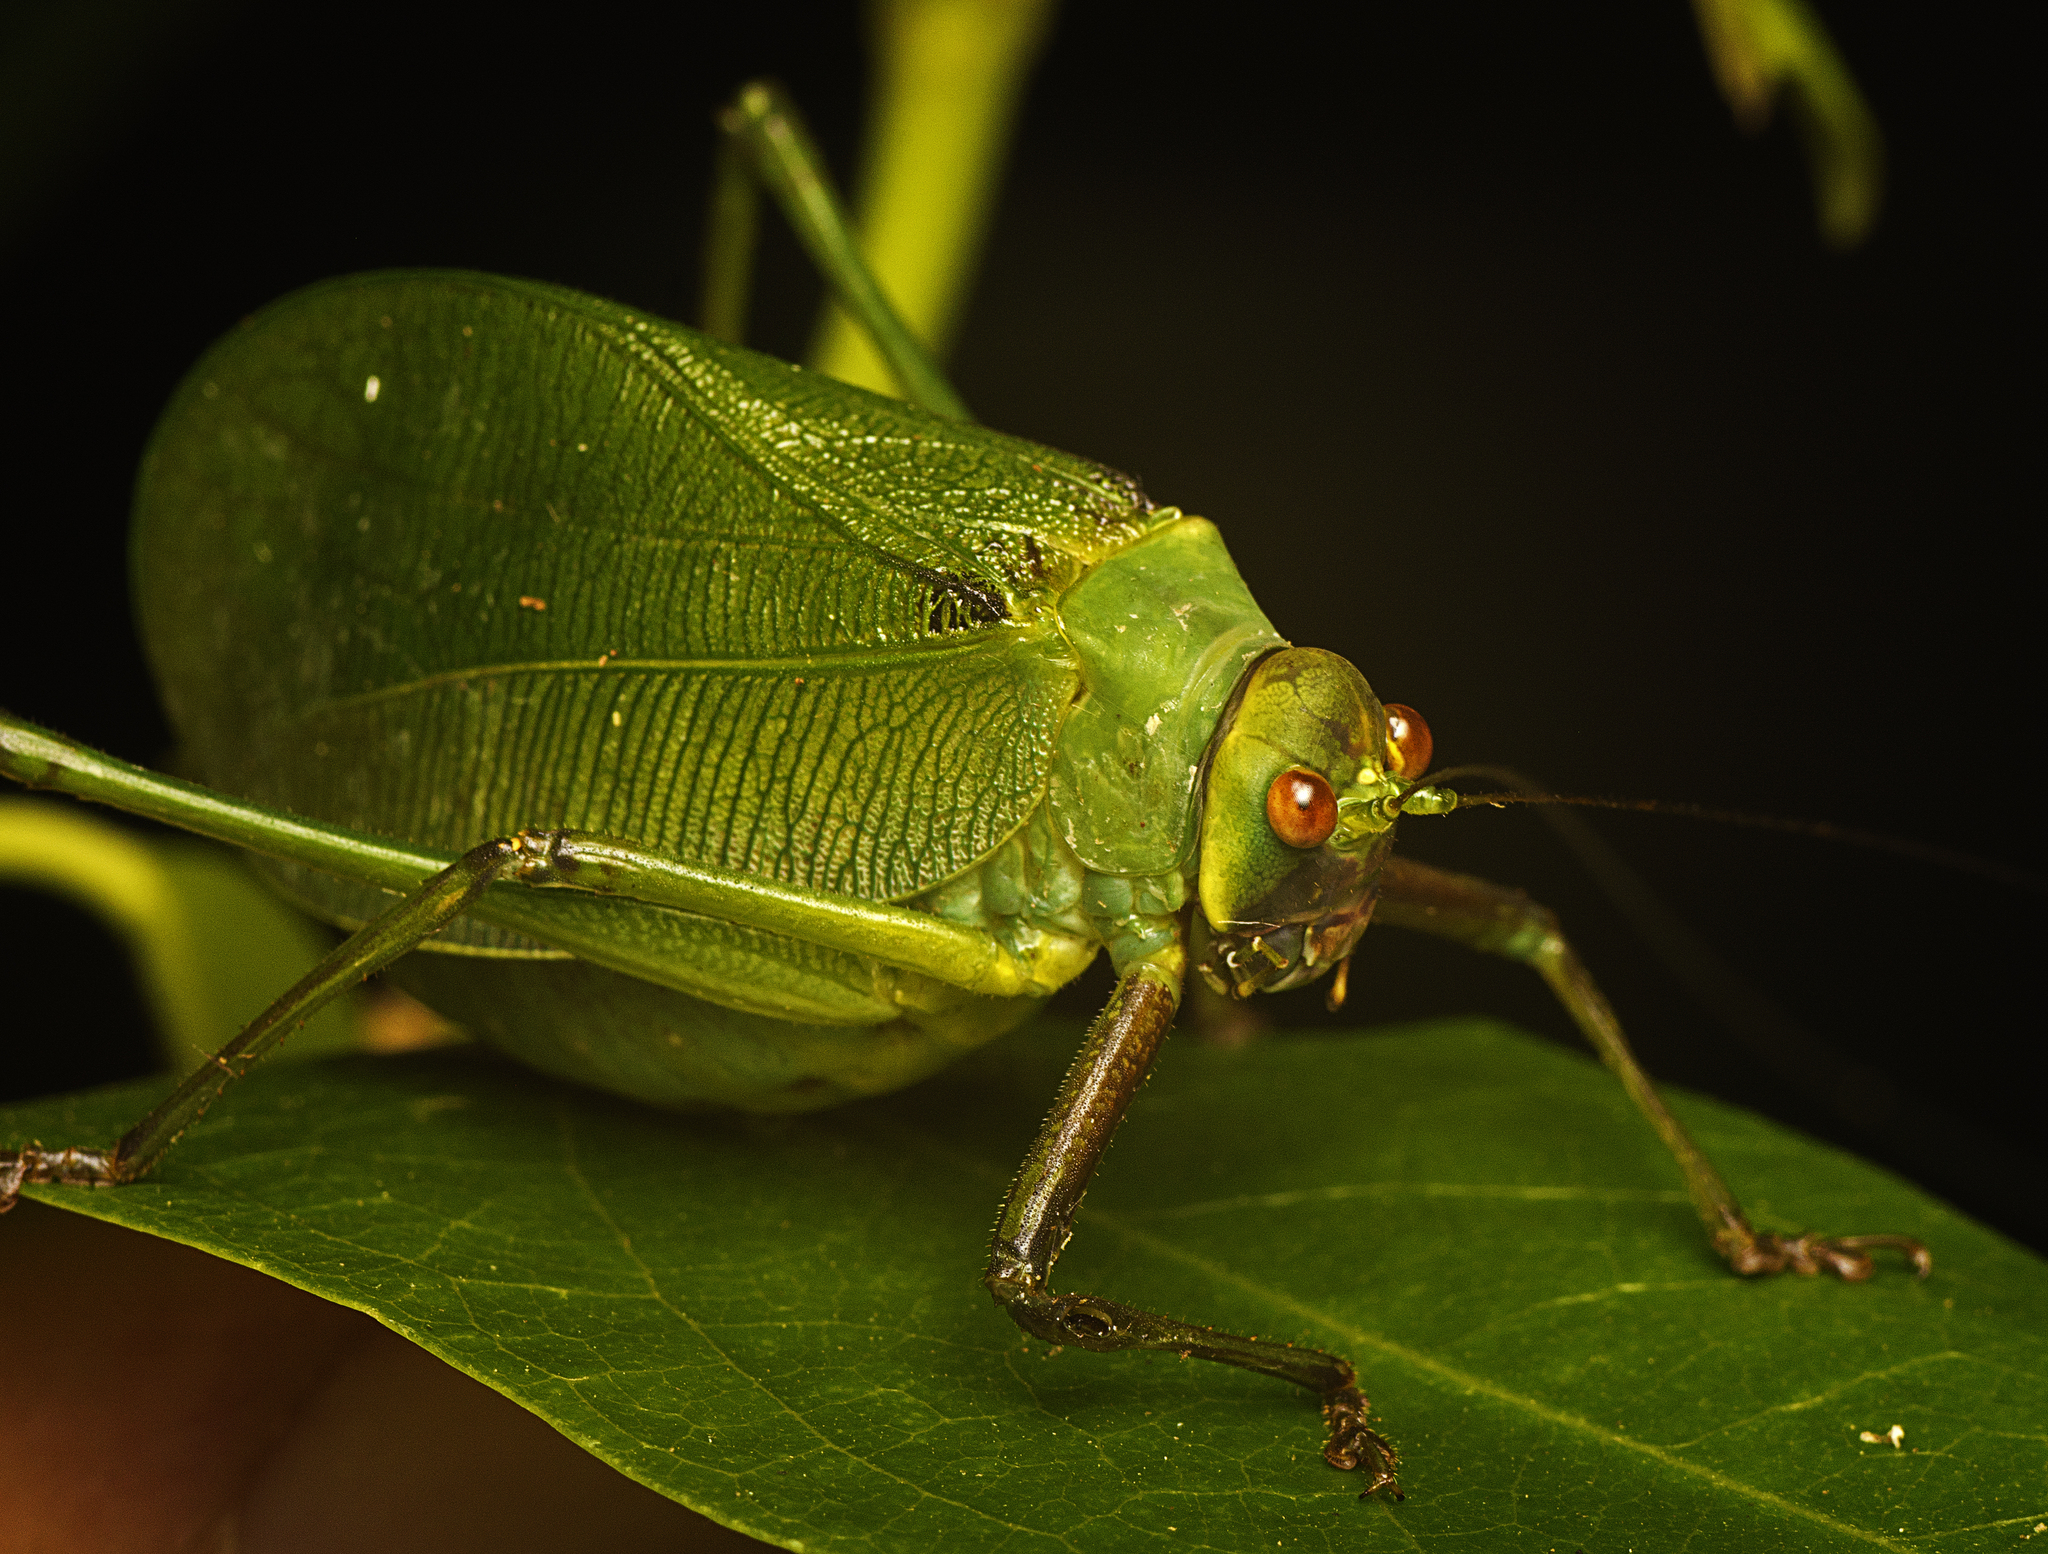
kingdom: Animalia
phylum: Arthropoda
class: Insecta
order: Orthoptera
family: Tettigoniidae
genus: Ozphyllum
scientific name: Ozphyllum naskreckii
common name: Neskrecki's bush katydid
